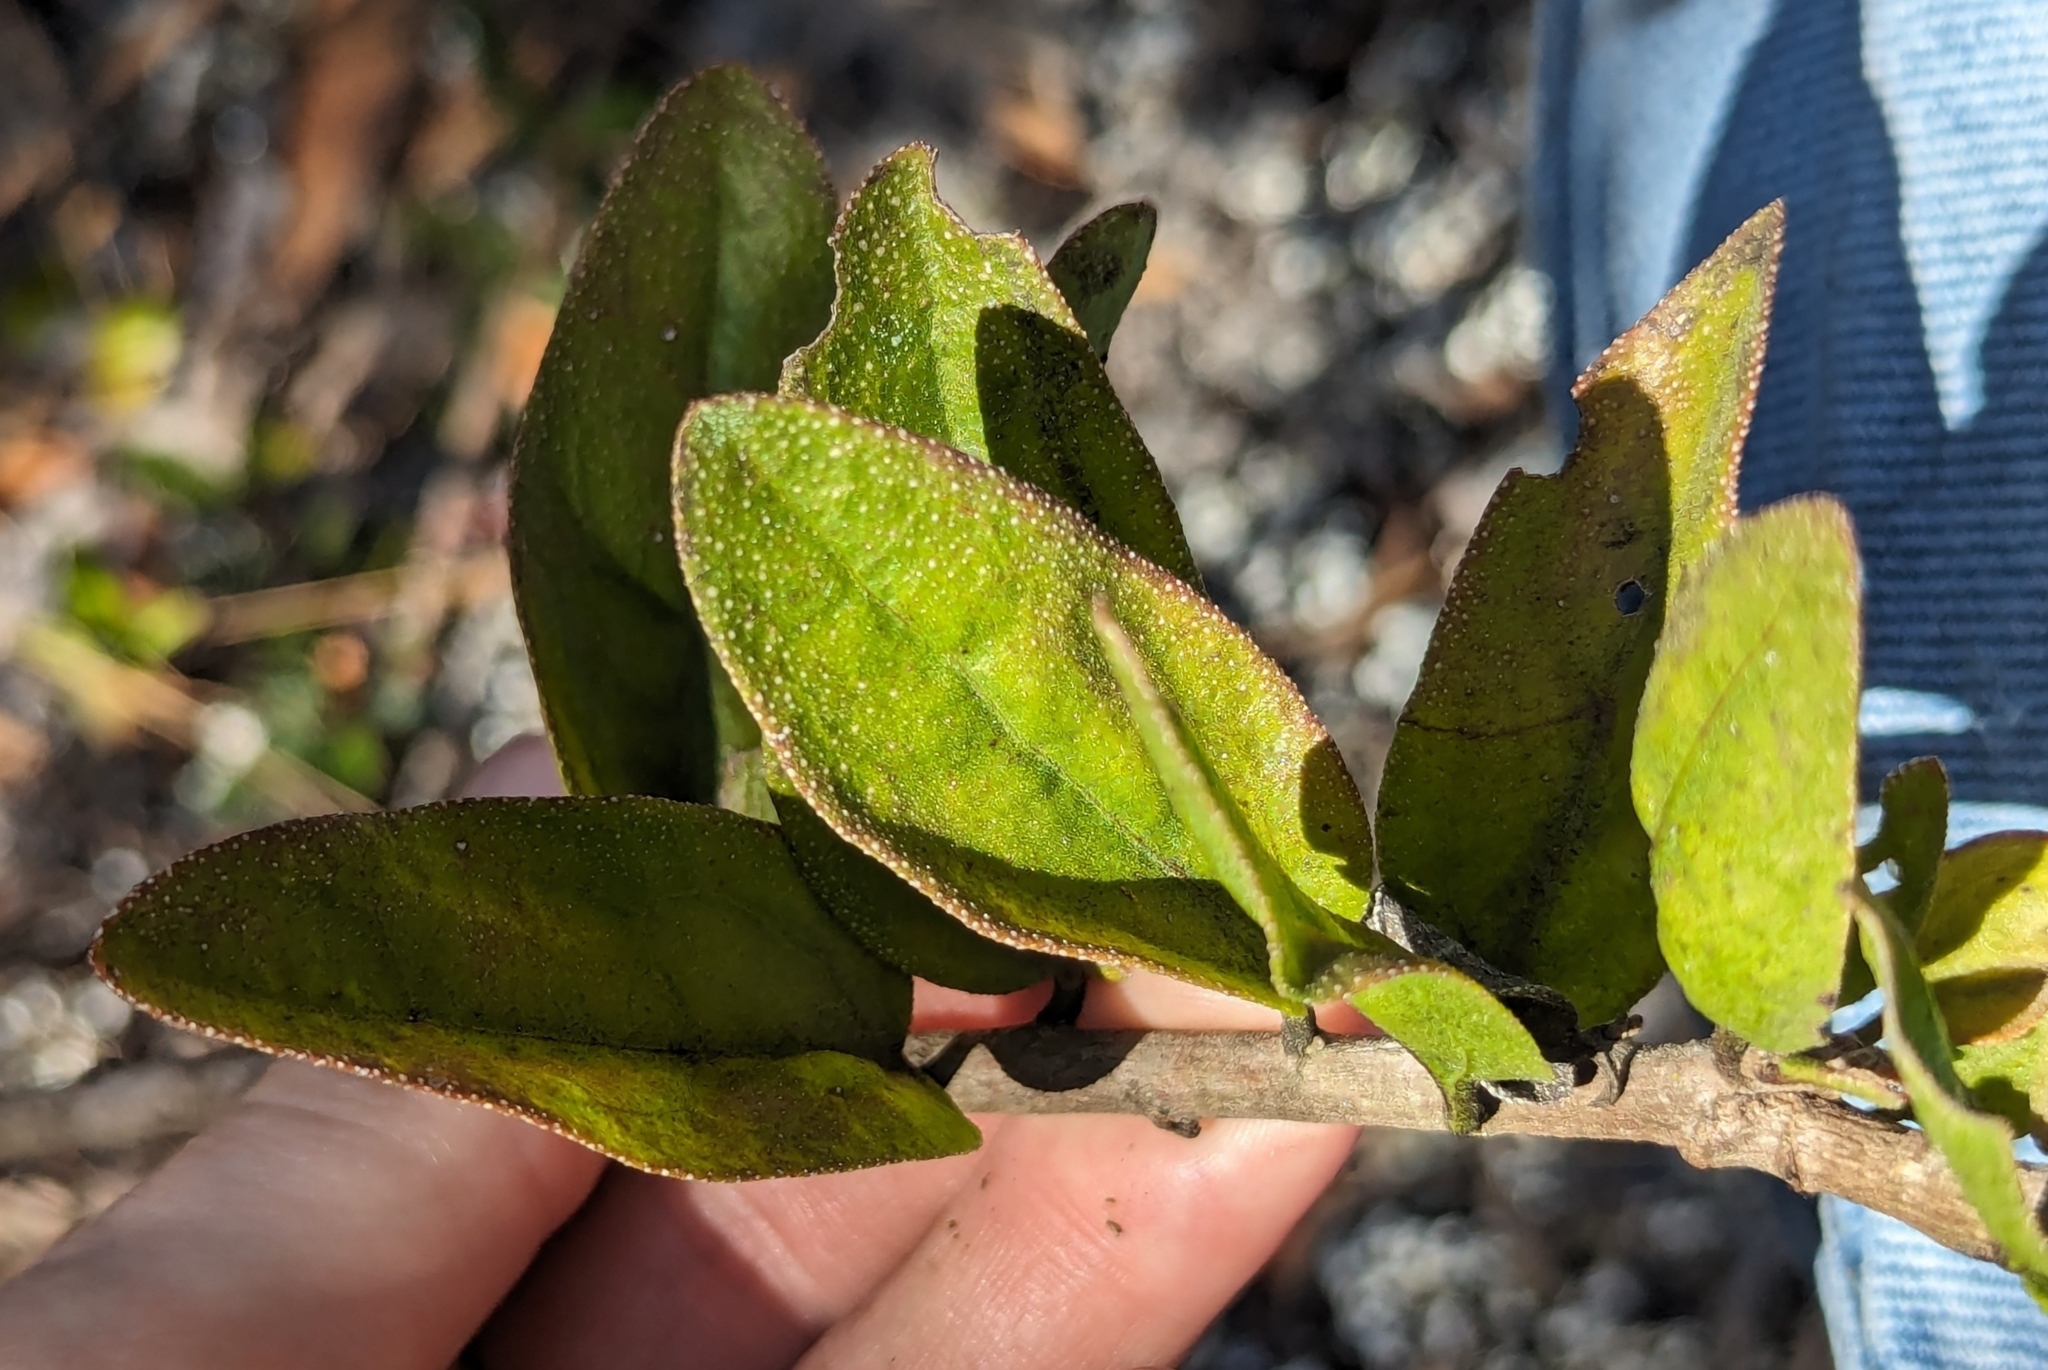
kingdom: Plantae
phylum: Tracheophyta
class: Magnoliopsida
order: Asterales
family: Asteraceae
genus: Palafoxia
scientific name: Palafoxia feayi
